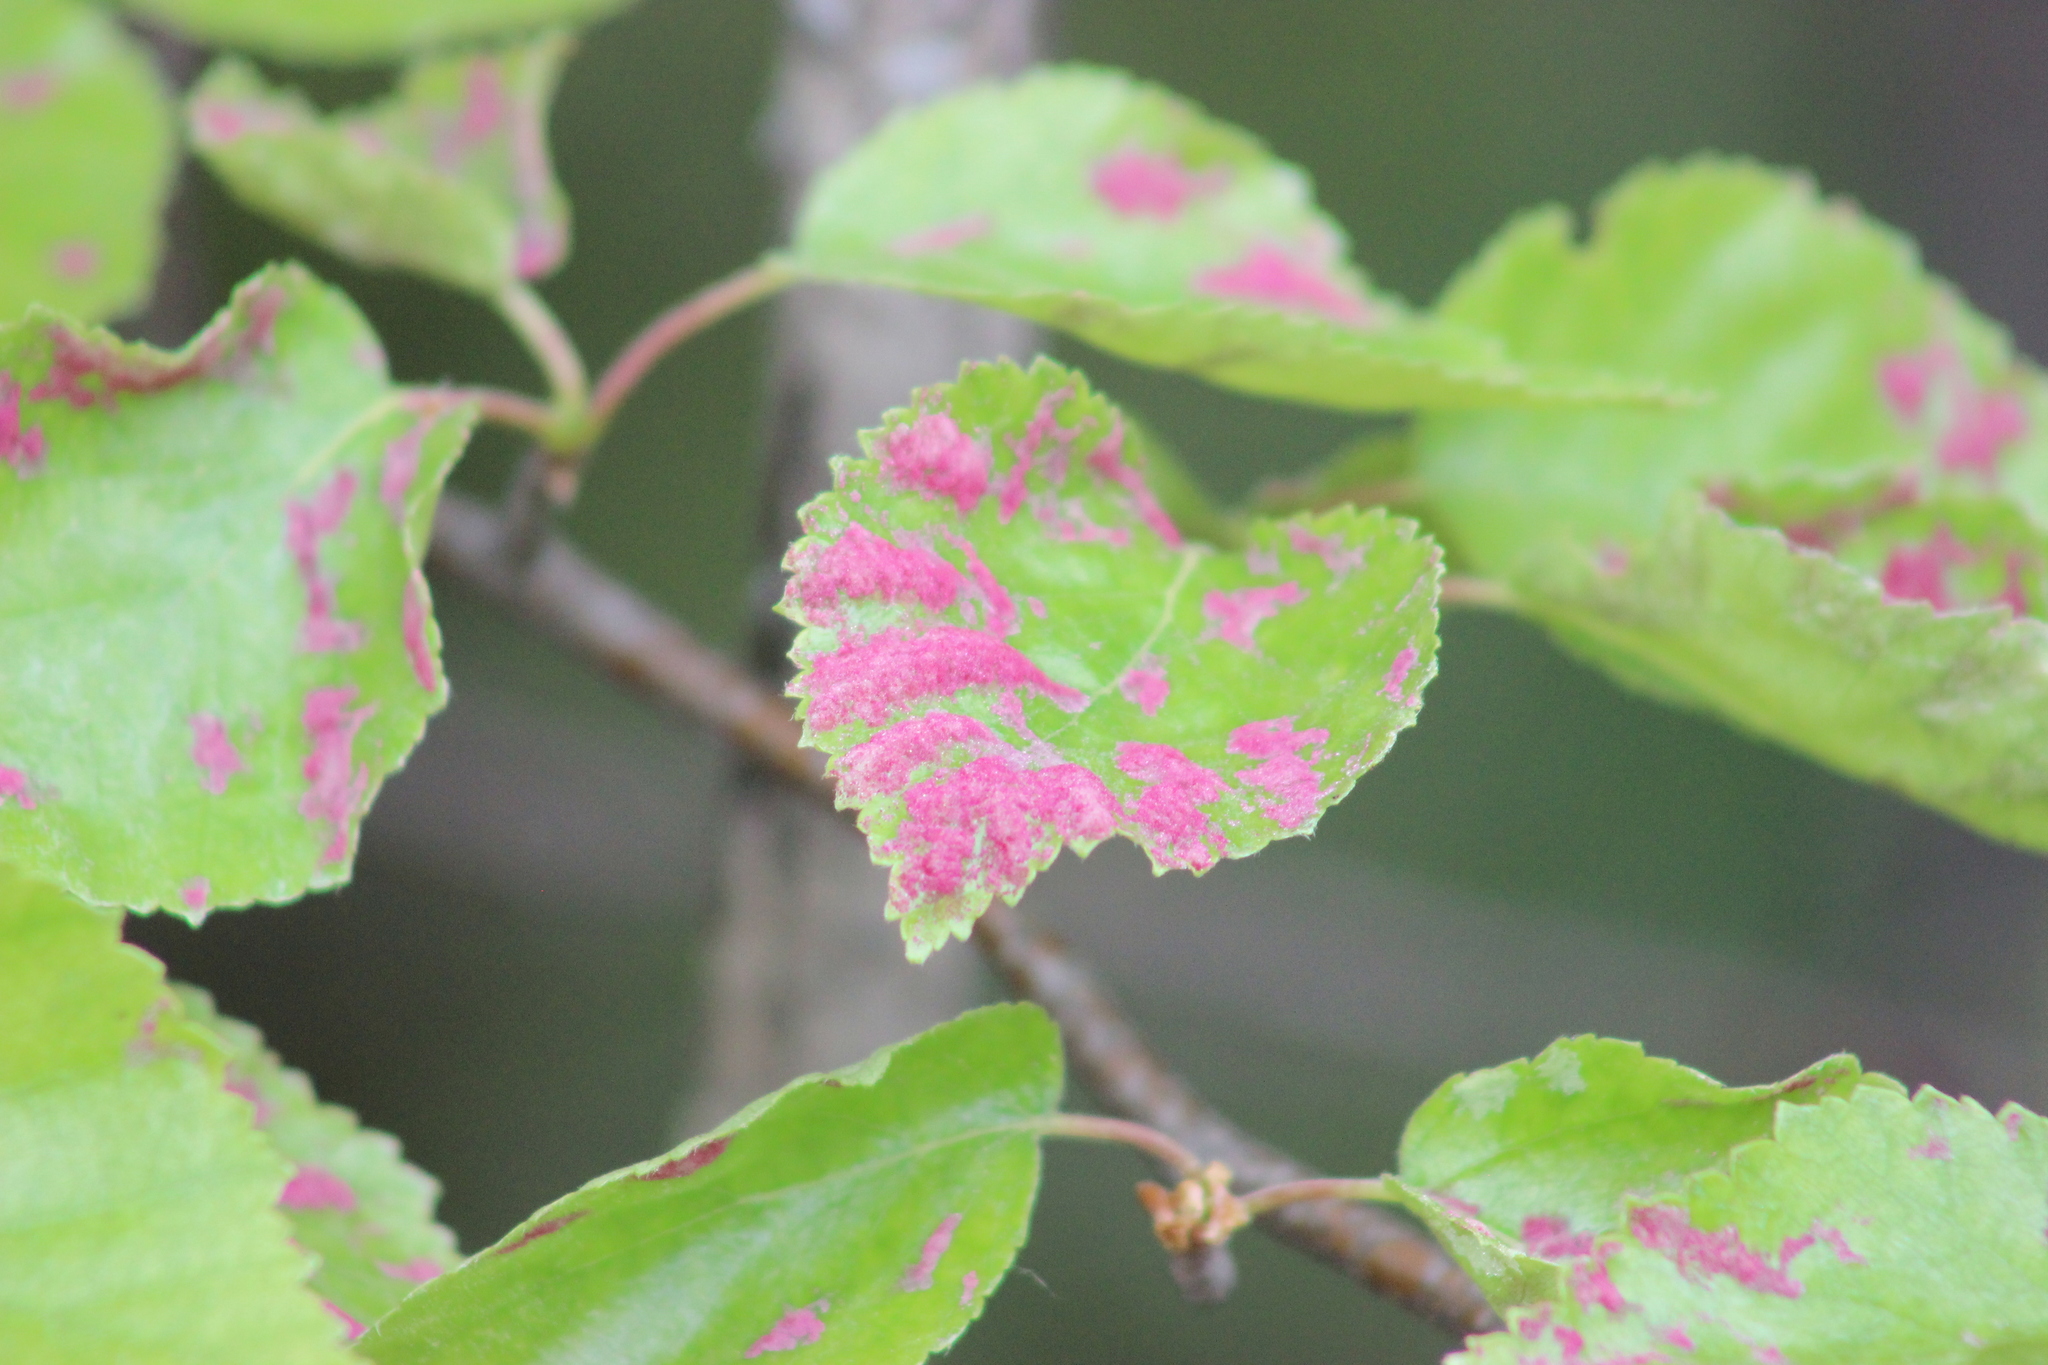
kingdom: Animalia
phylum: Arthropoda
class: Arachnida
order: Trombidiformes
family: Eriophyidae
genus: Acalitus
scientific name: Acalitus longisetosus
